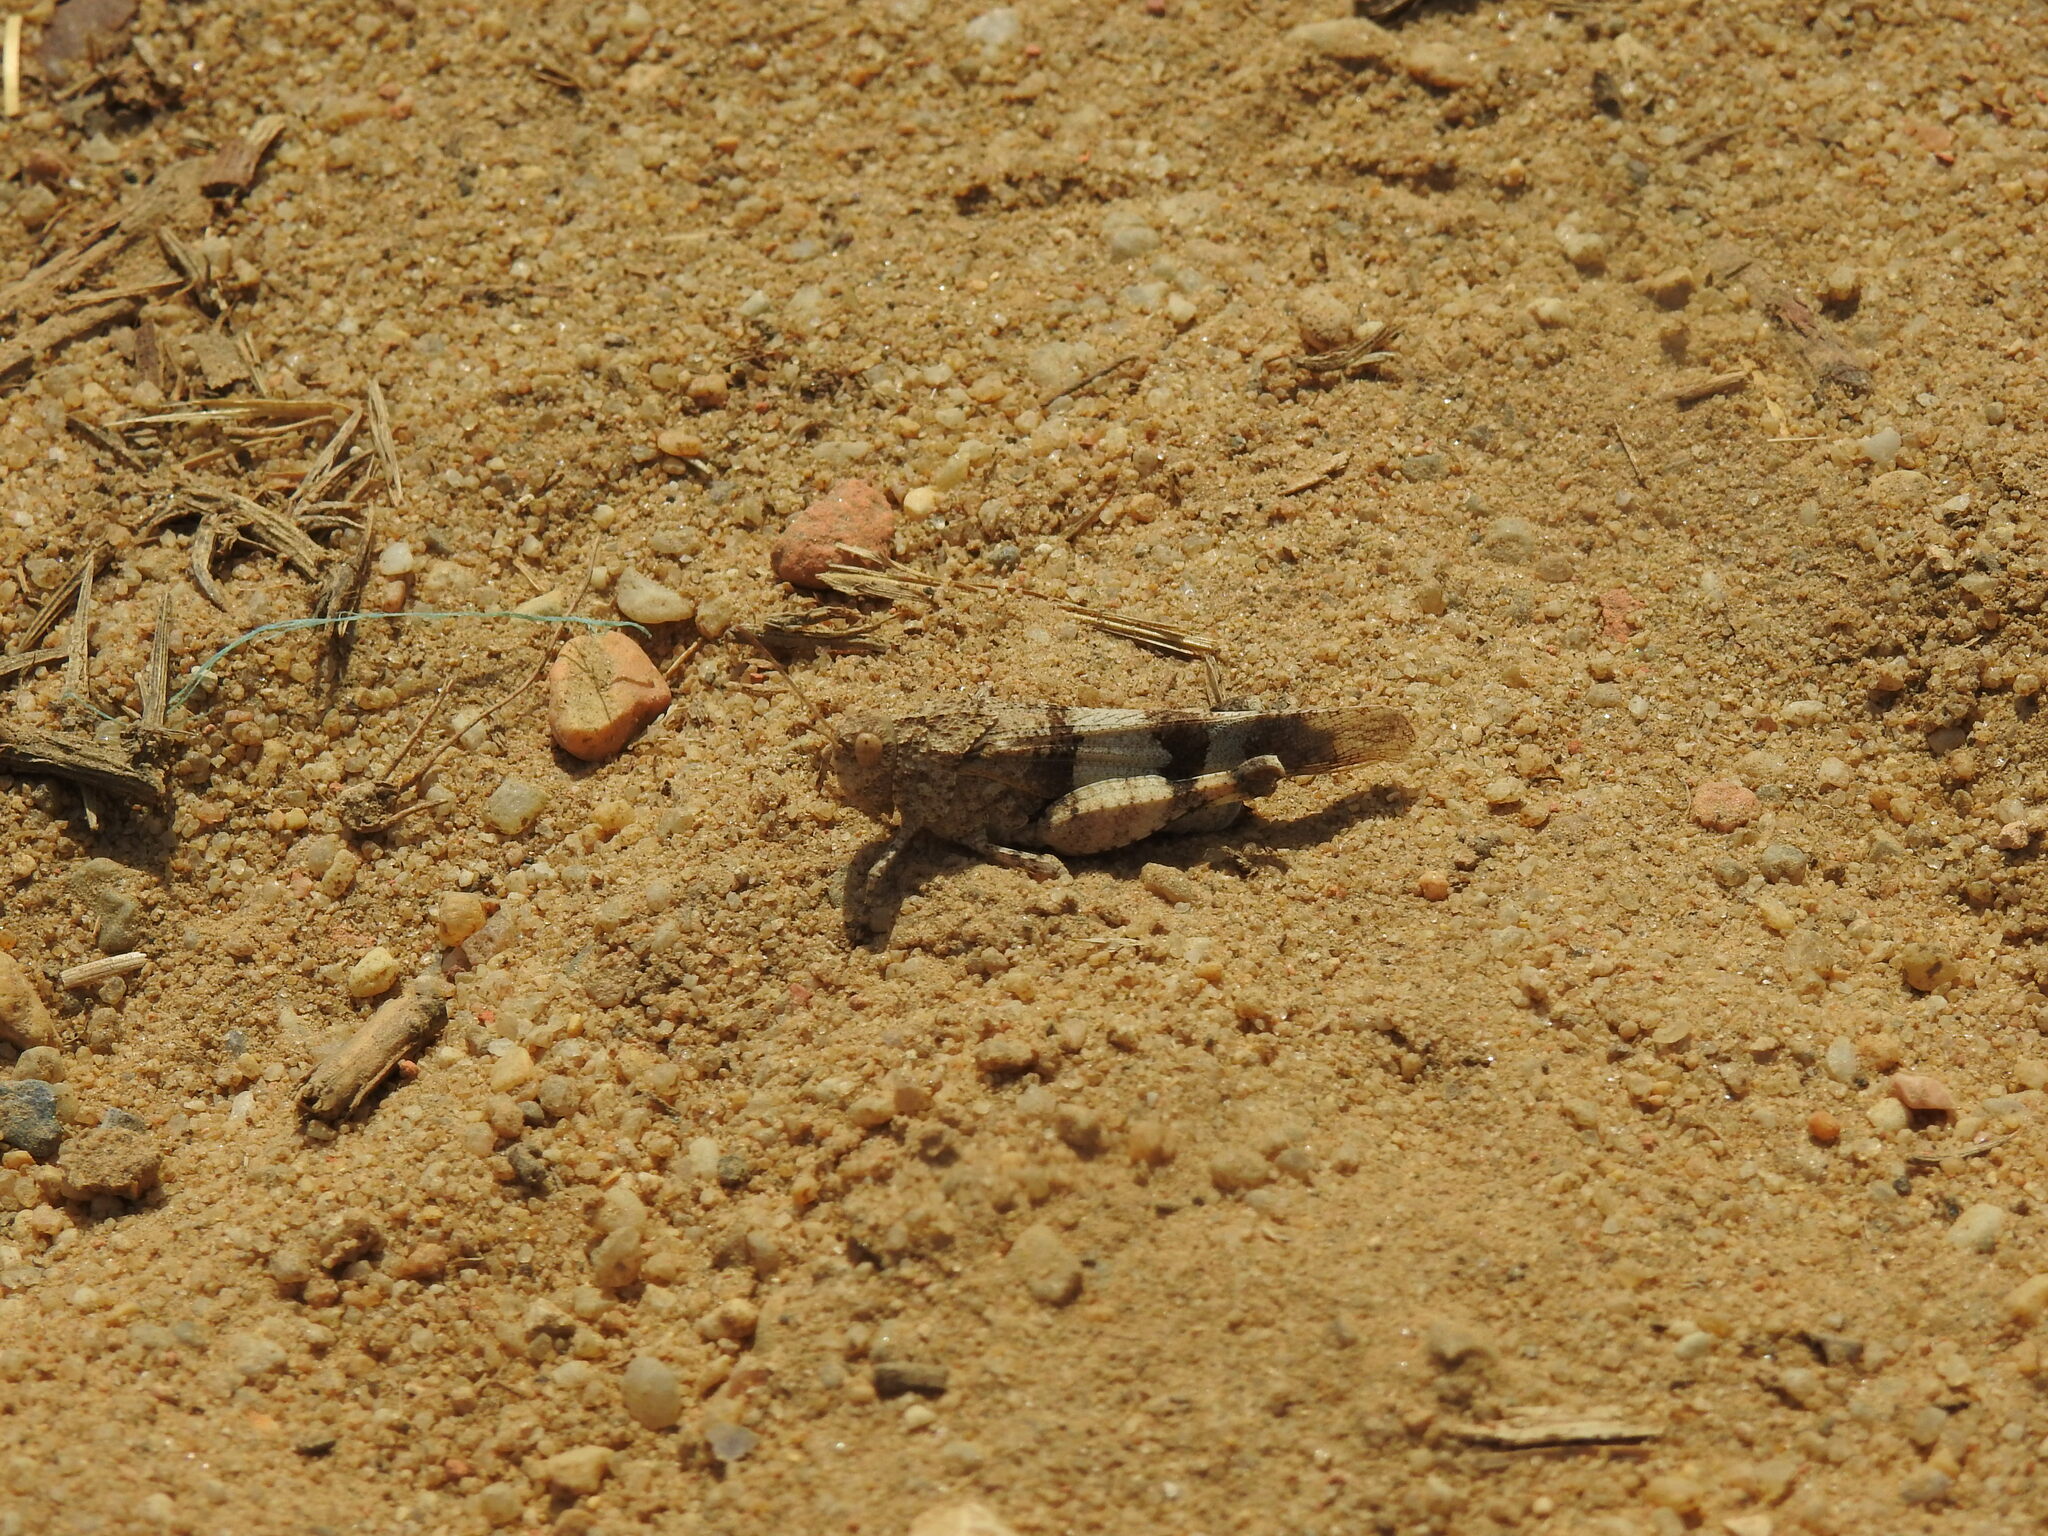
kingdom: Animalia
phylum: Arthropoda
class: Insecta
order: Orthoptera
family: Acrididae
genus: Oedipoda
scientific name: Oedipoda caerulescens
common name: Blue-winged grasshopper
